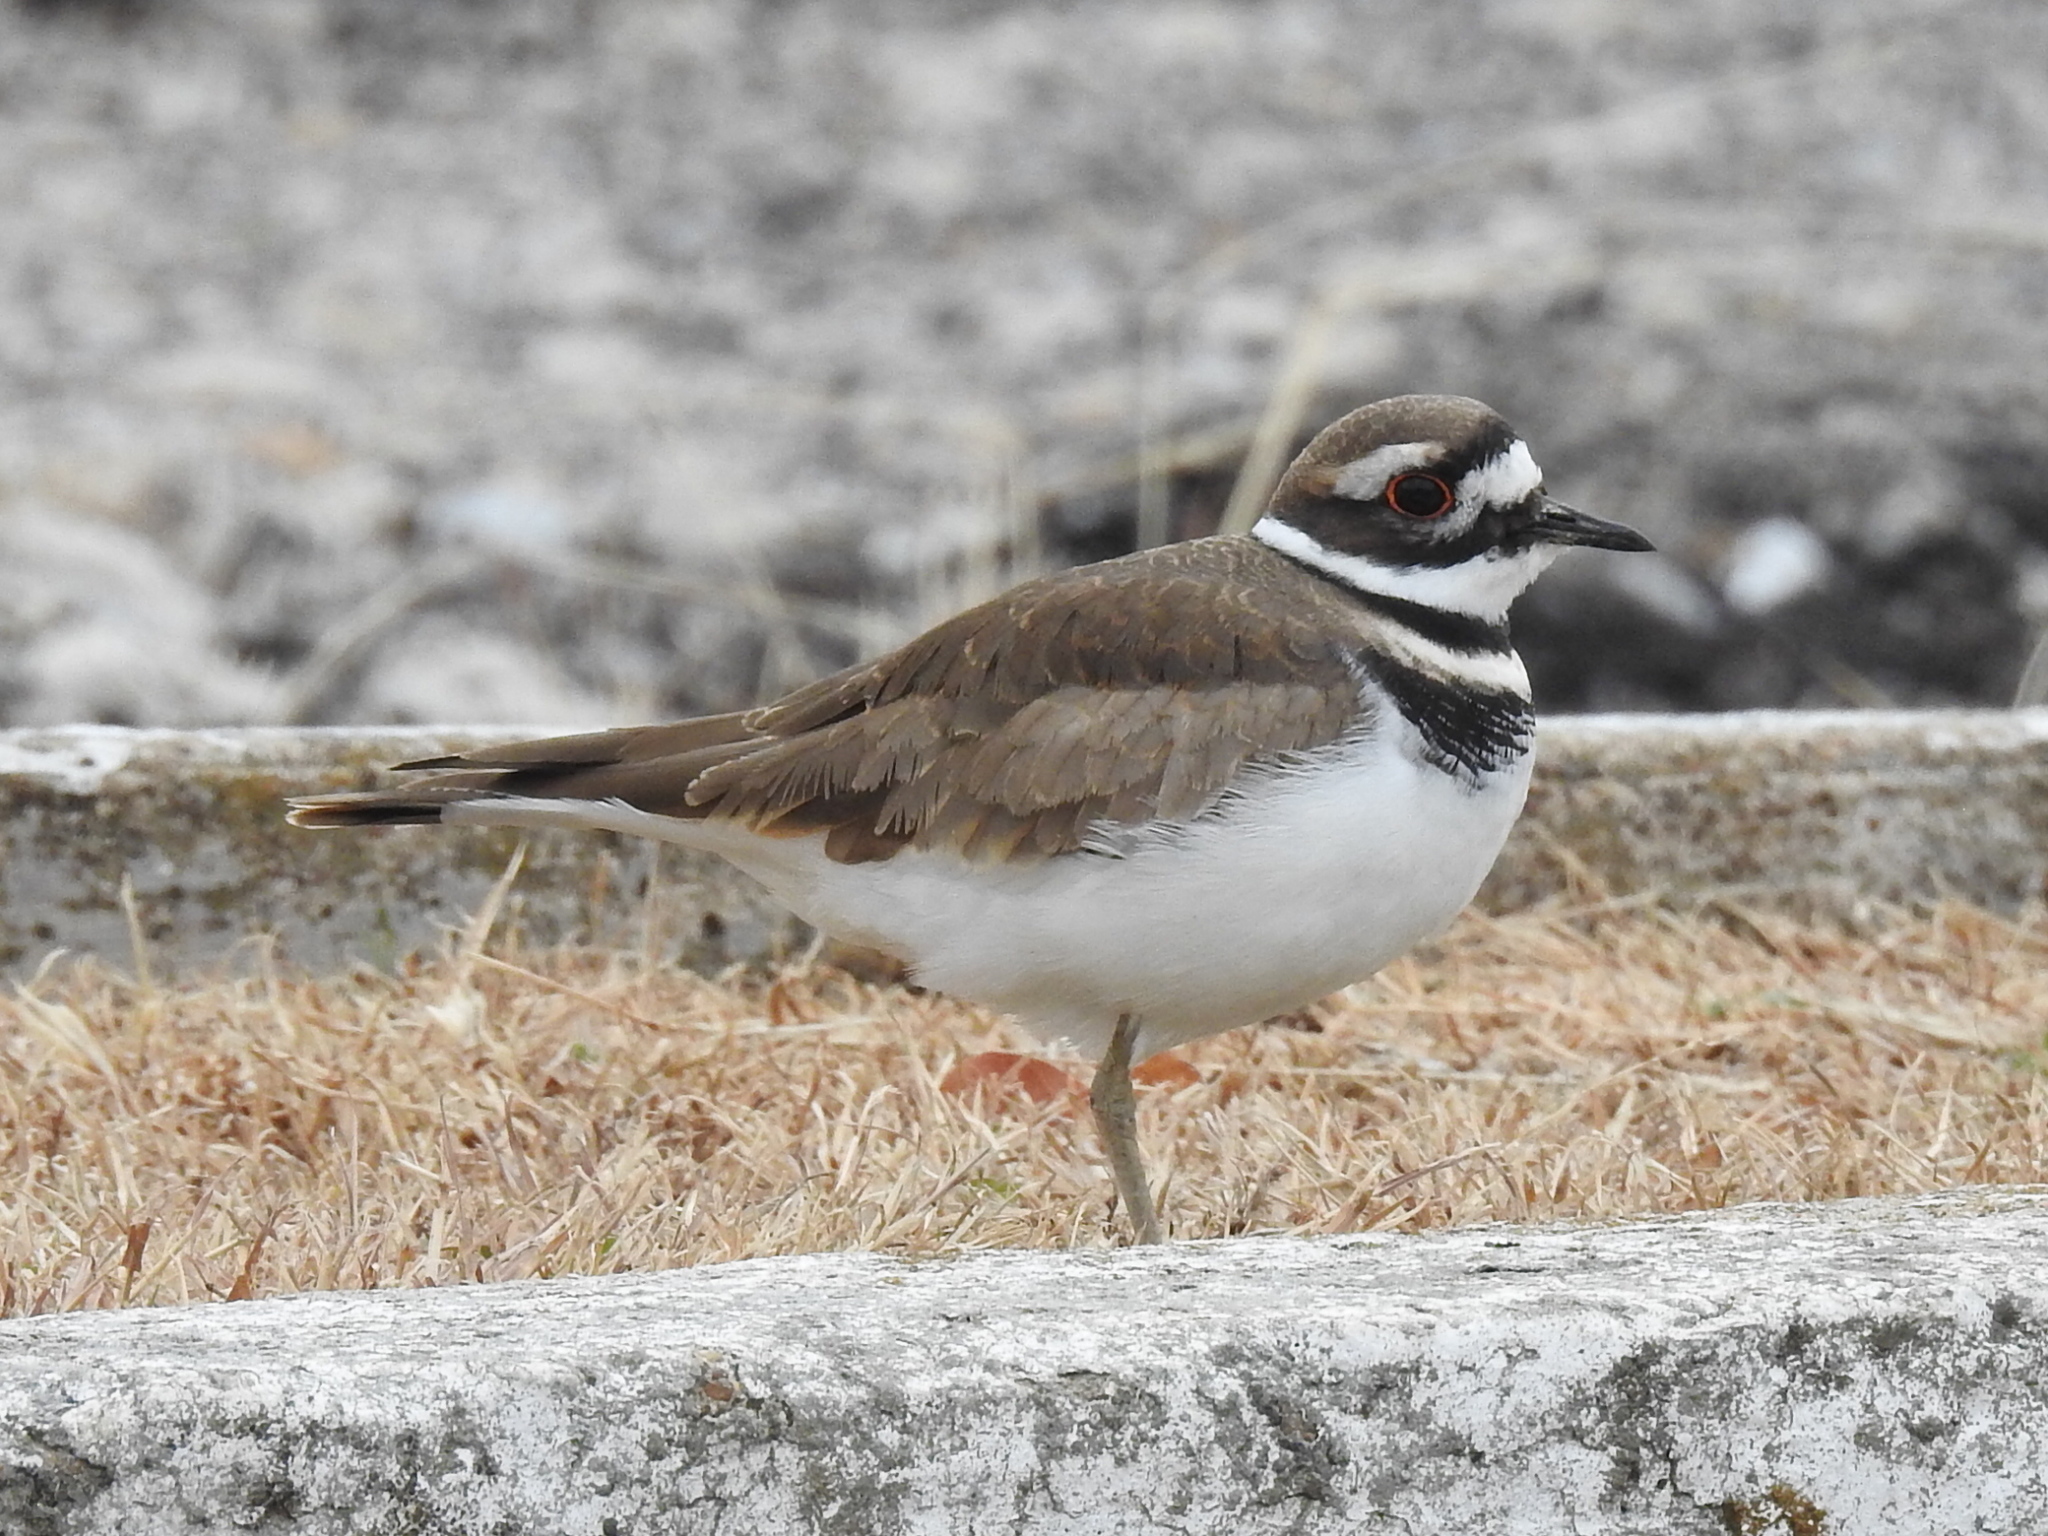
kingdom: Animalia
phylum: Chordata
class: Aves
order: Charadriiformes
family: Charadriidae
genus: Charadrius
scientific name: Charadrius vociferus
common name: Killdeer
